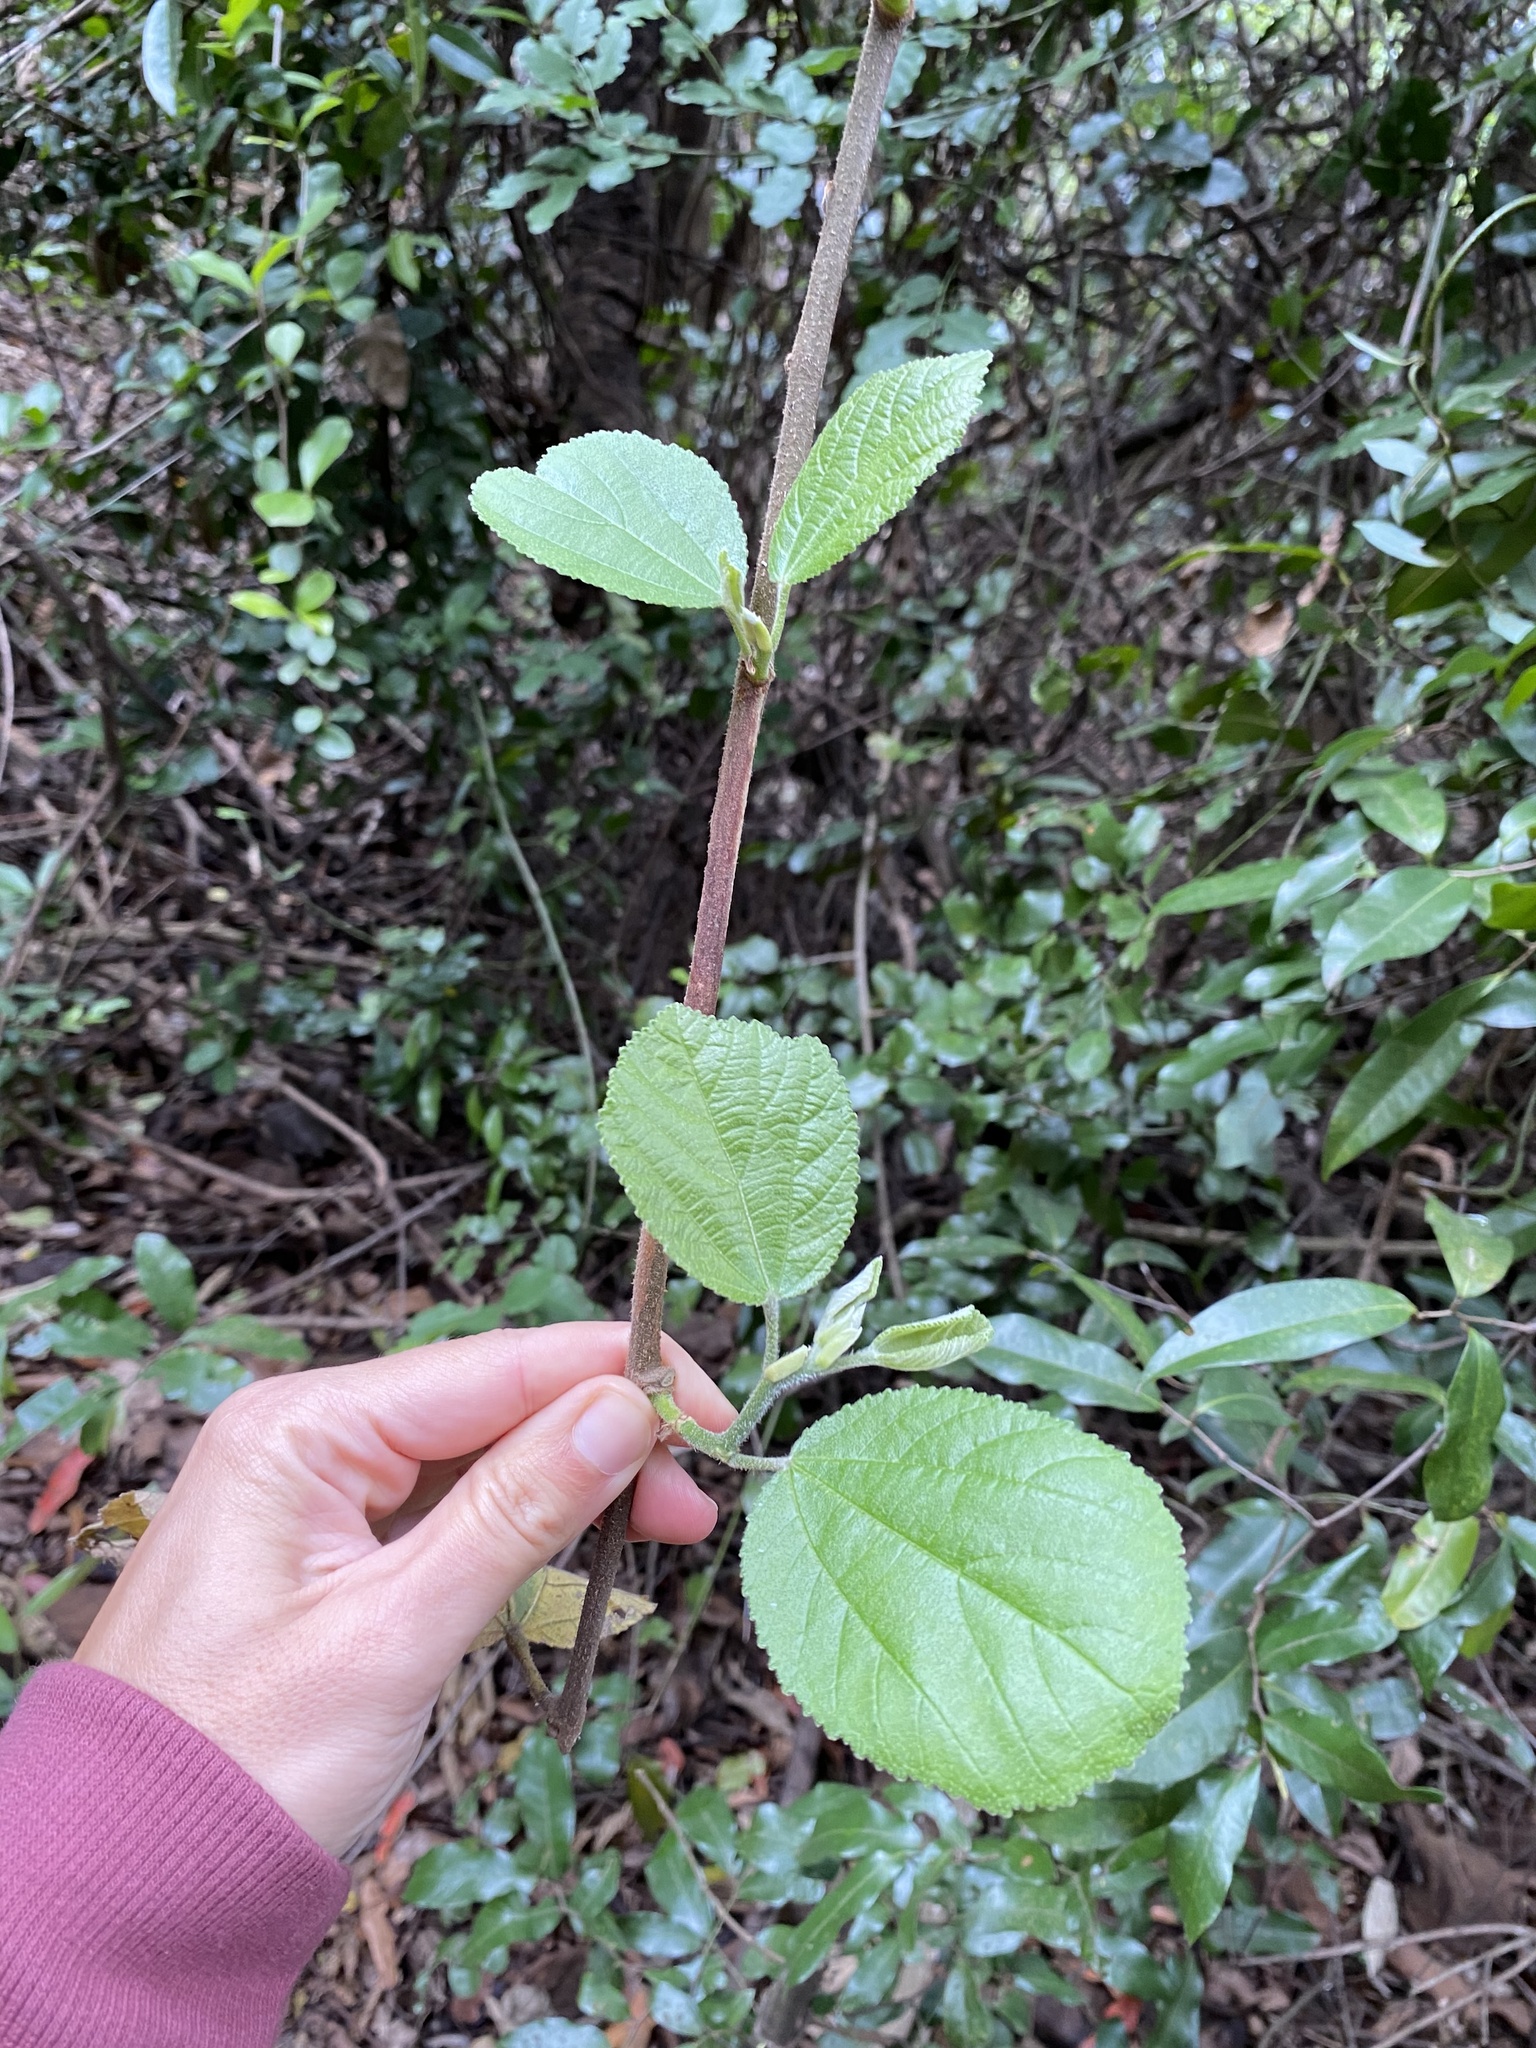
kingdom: Plantae
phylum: Tracheophyta
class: Magnoliopsida
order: Malvales
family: Malvaceae
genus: Grewia
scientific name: Grewia lasiocarpa
